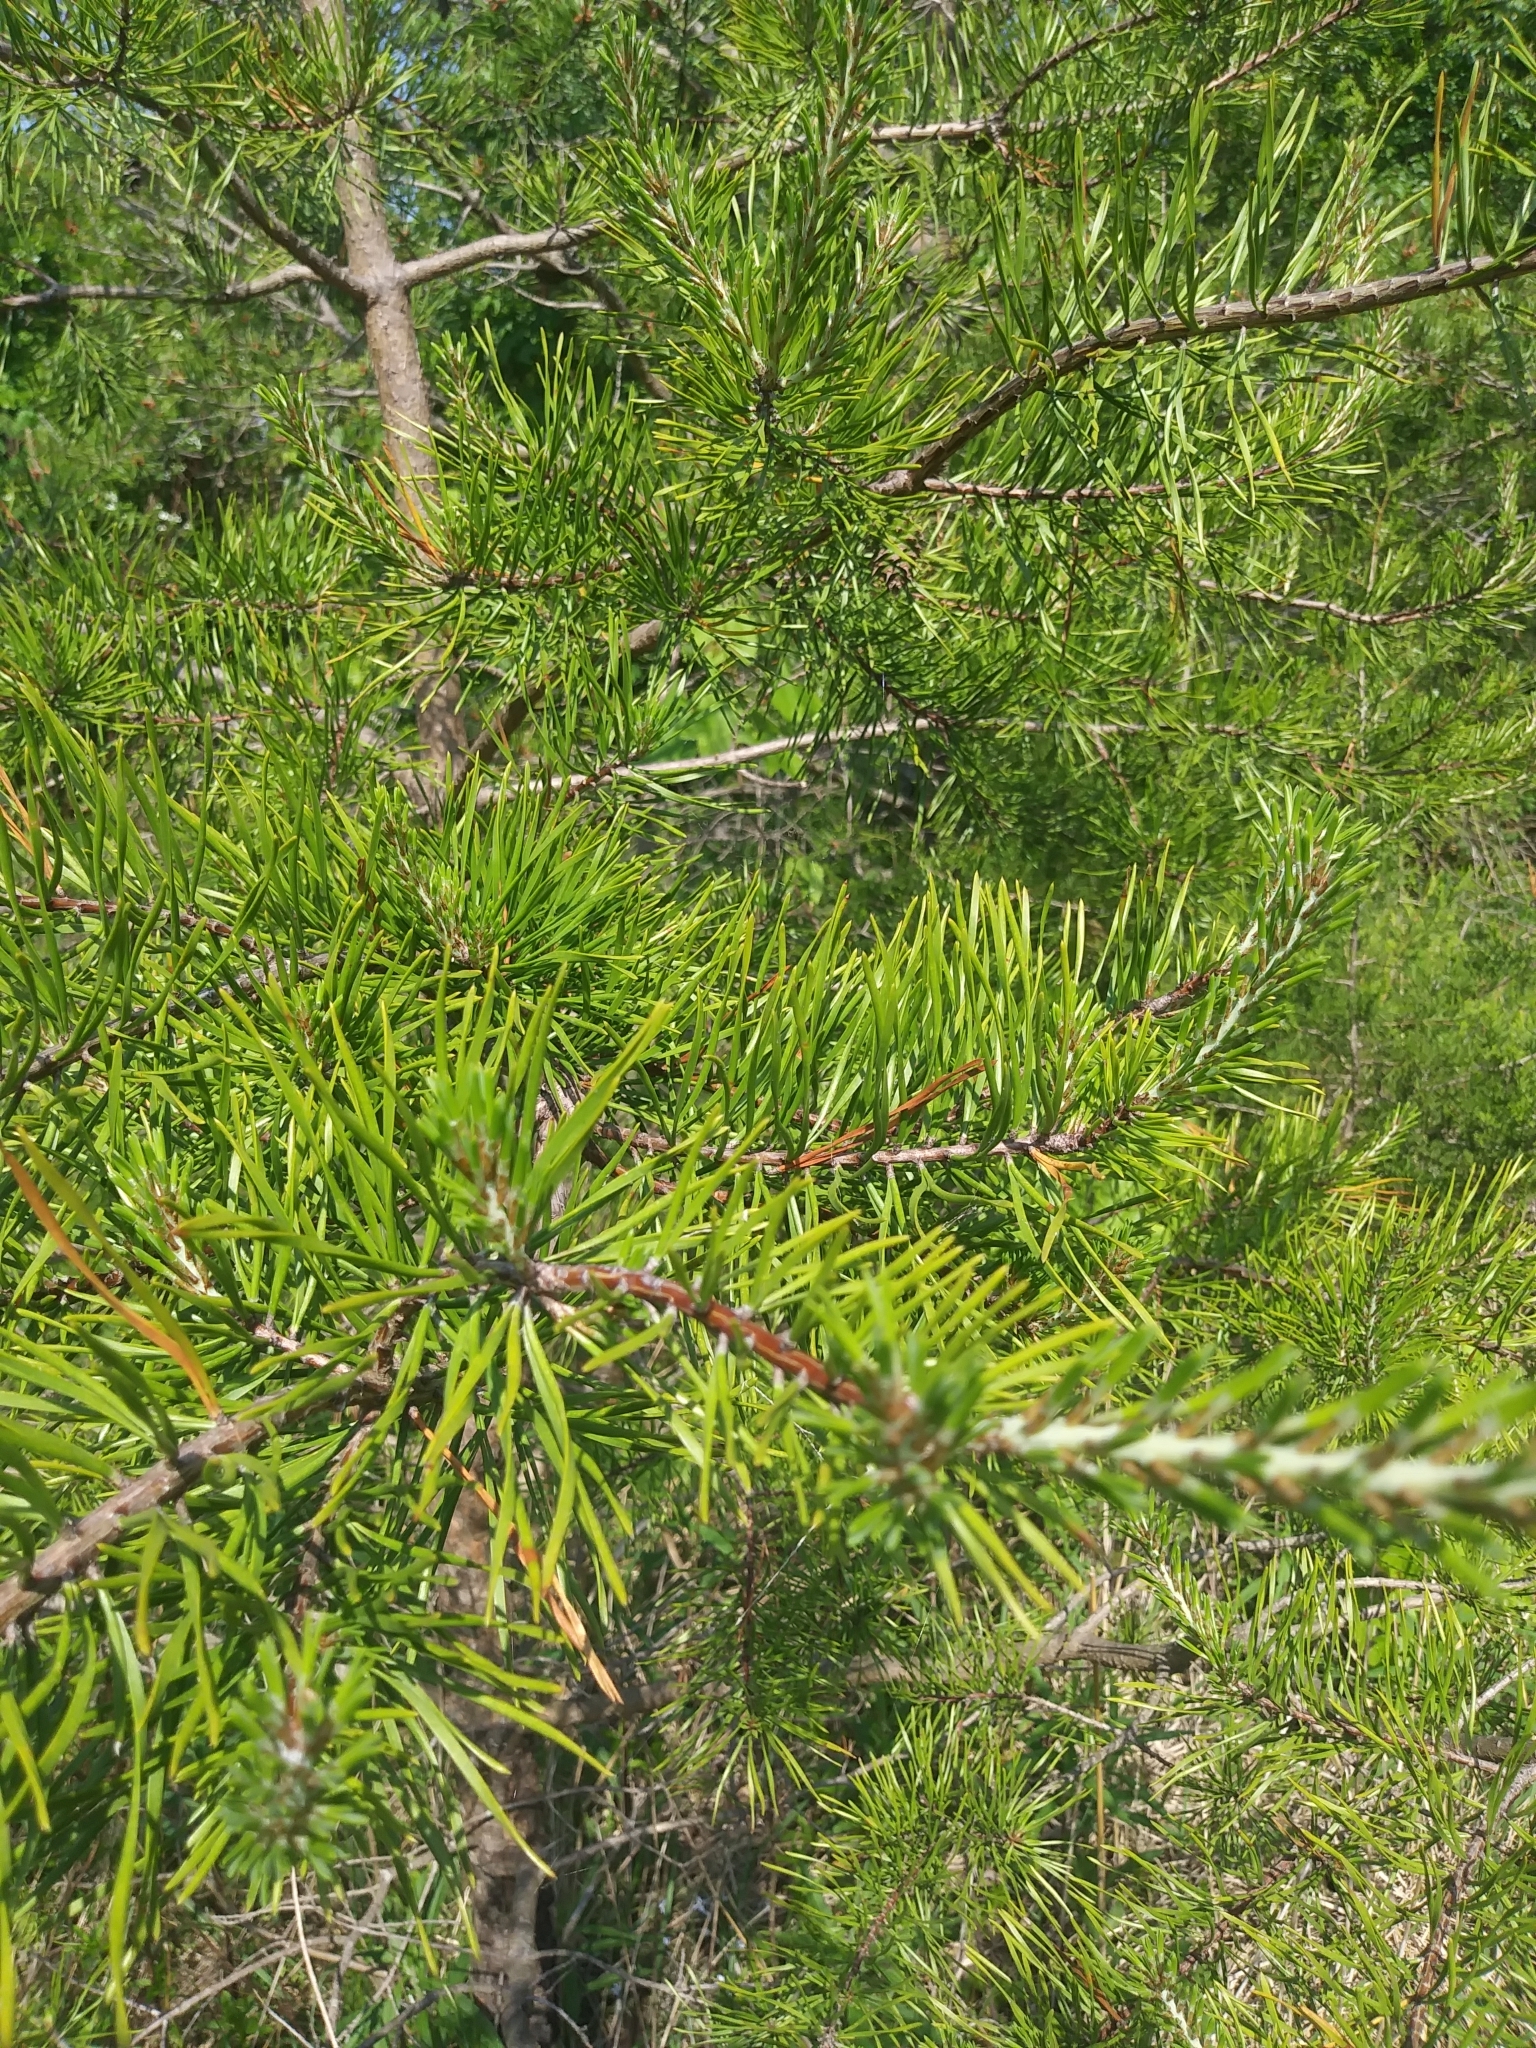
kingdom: Plantae
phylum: Tracheophyta
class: Pinopsida
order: Pinales
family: Pinaceae
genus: Pinus
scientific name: Pinus virginiana
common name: Scrub pine
